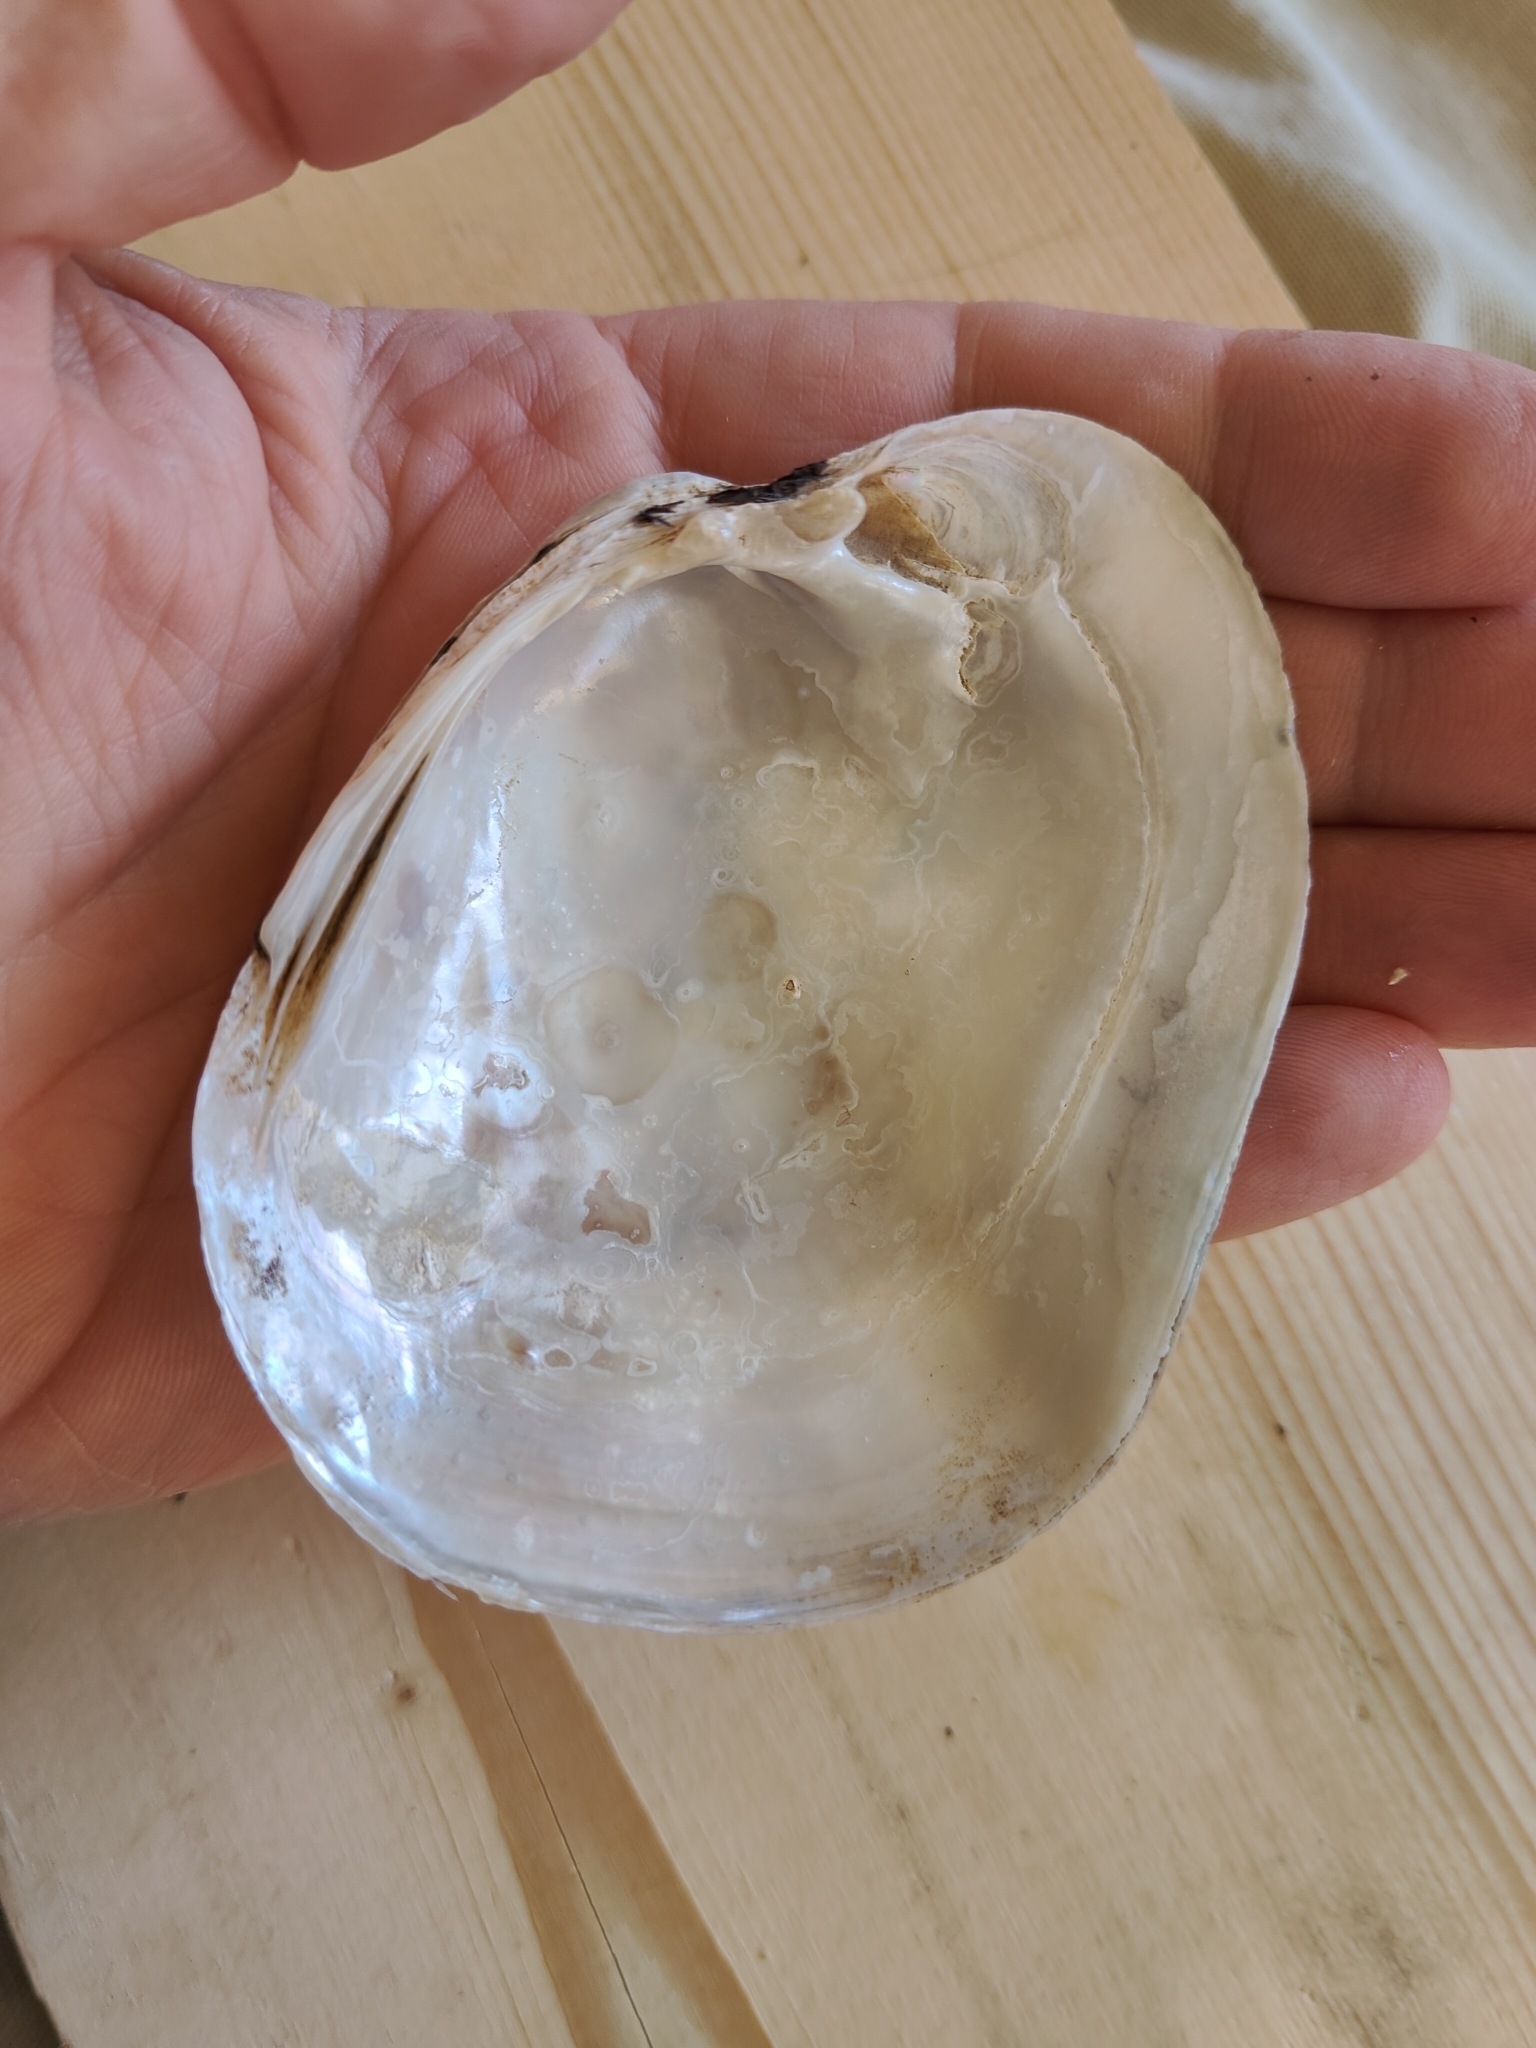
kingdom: Animalia
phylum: Mollusca
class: Bivalvia
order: Unionida
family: Unionidae
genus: Lampsilis
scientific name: Lampsilis cardium
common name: Plain pocketbook
